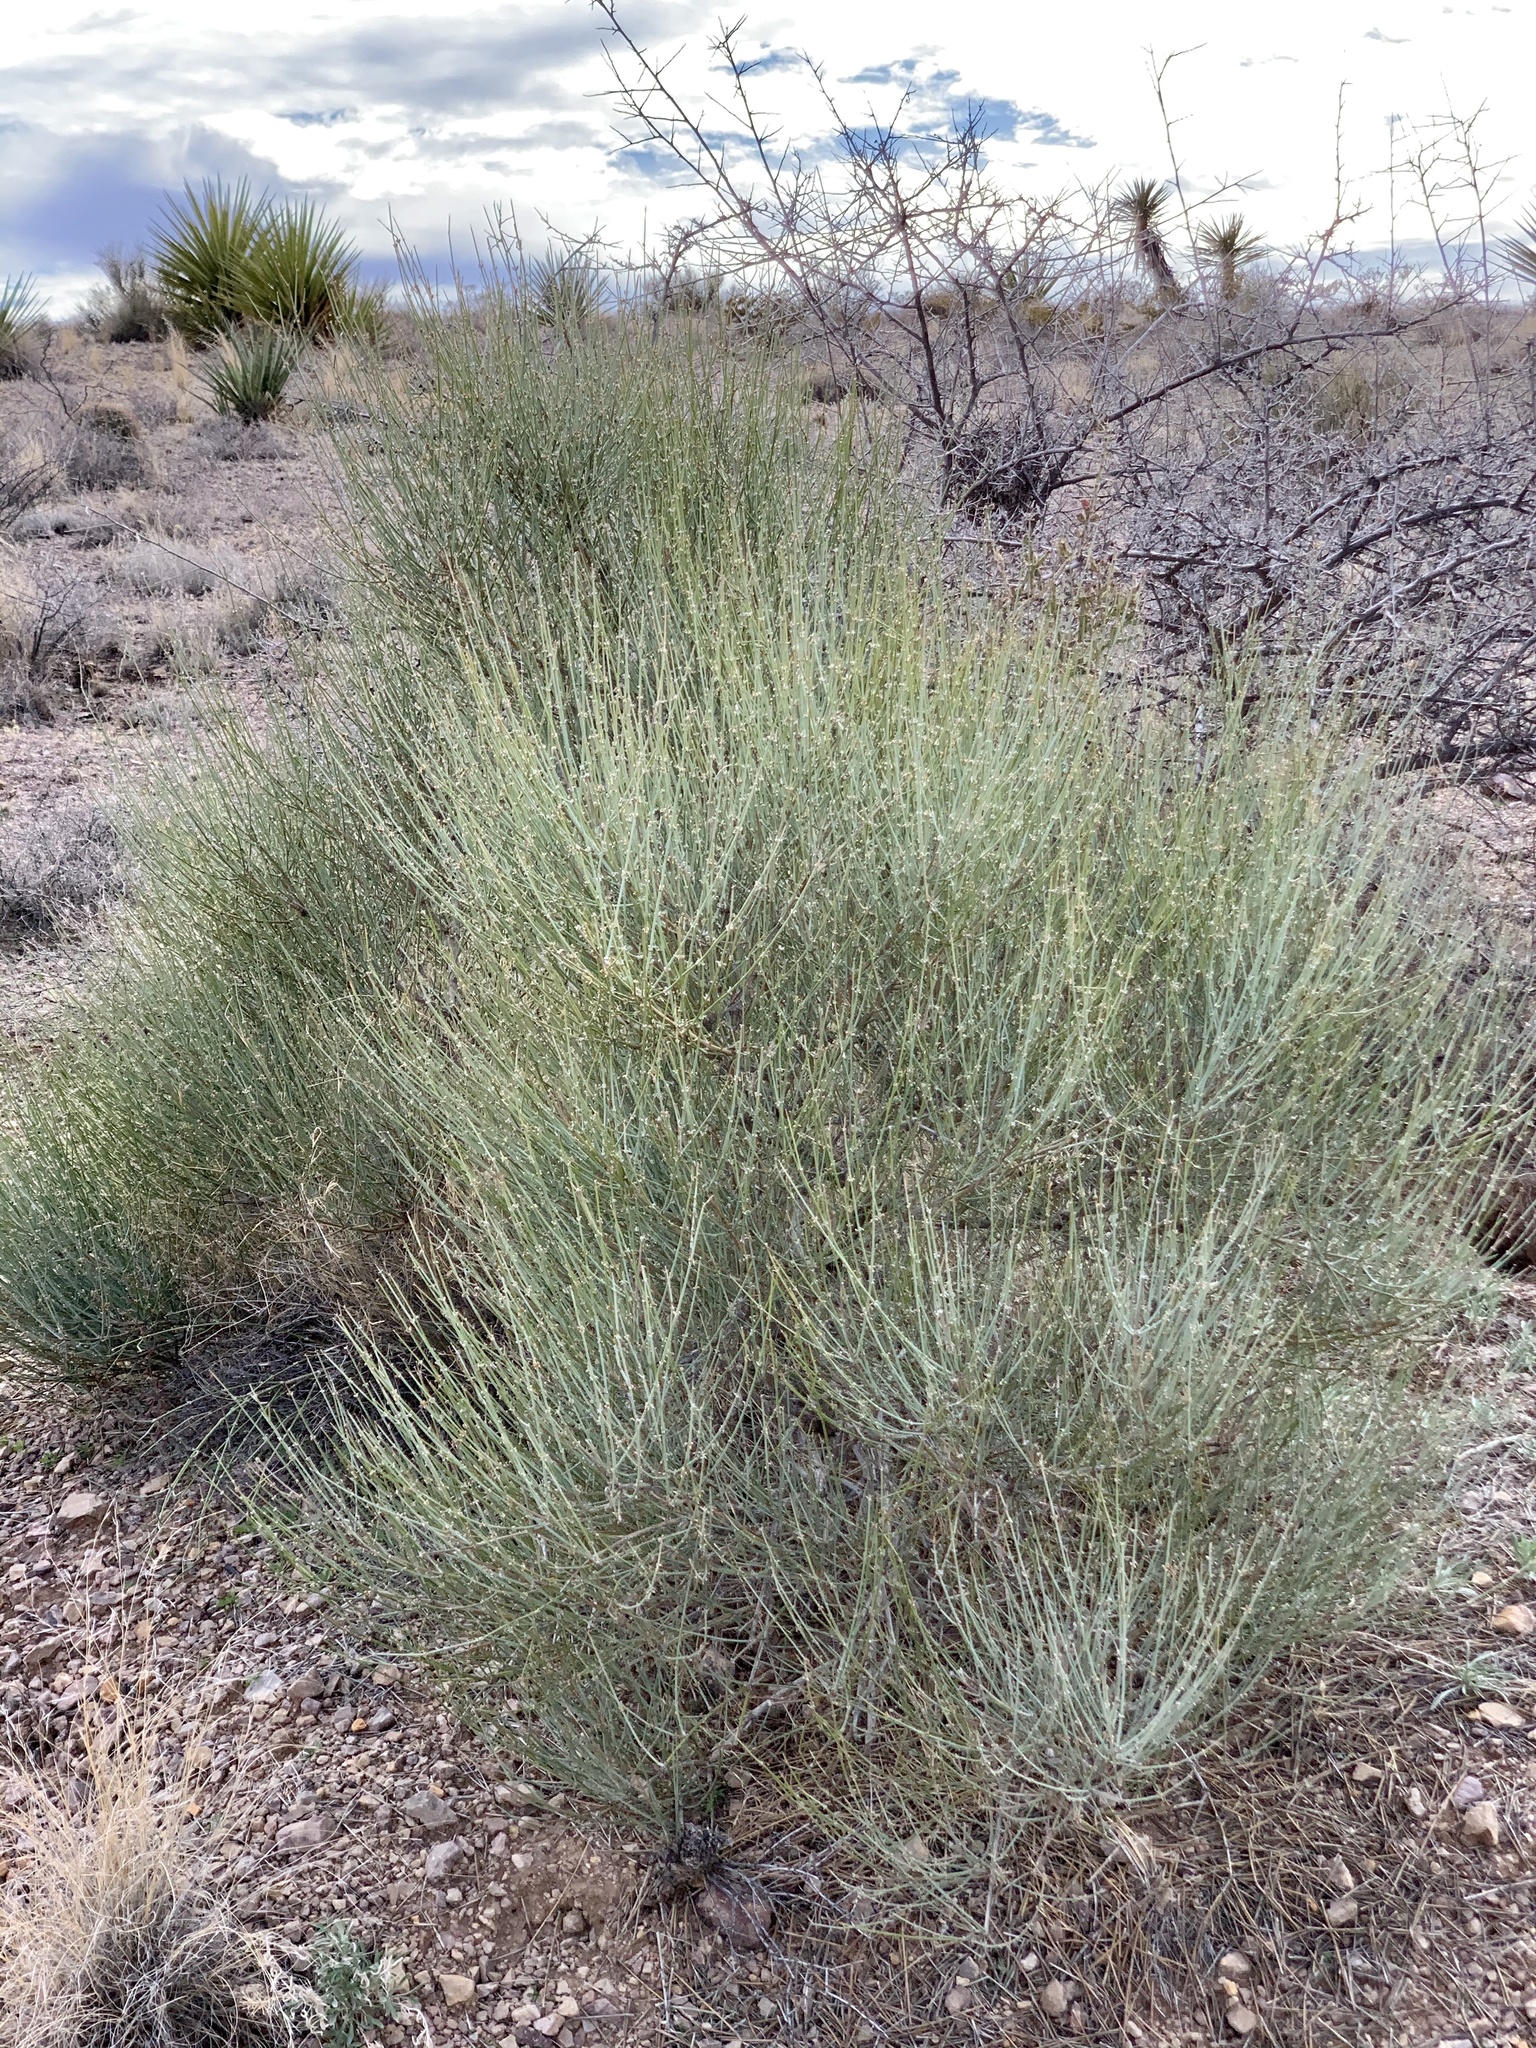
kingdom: Plantae
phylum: Tracheophyta
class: Gnetopsida
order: Ephedrales
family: Ephedraceae
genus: Ephedra
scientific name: Ephedra trifurca
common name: Mexican-tea
